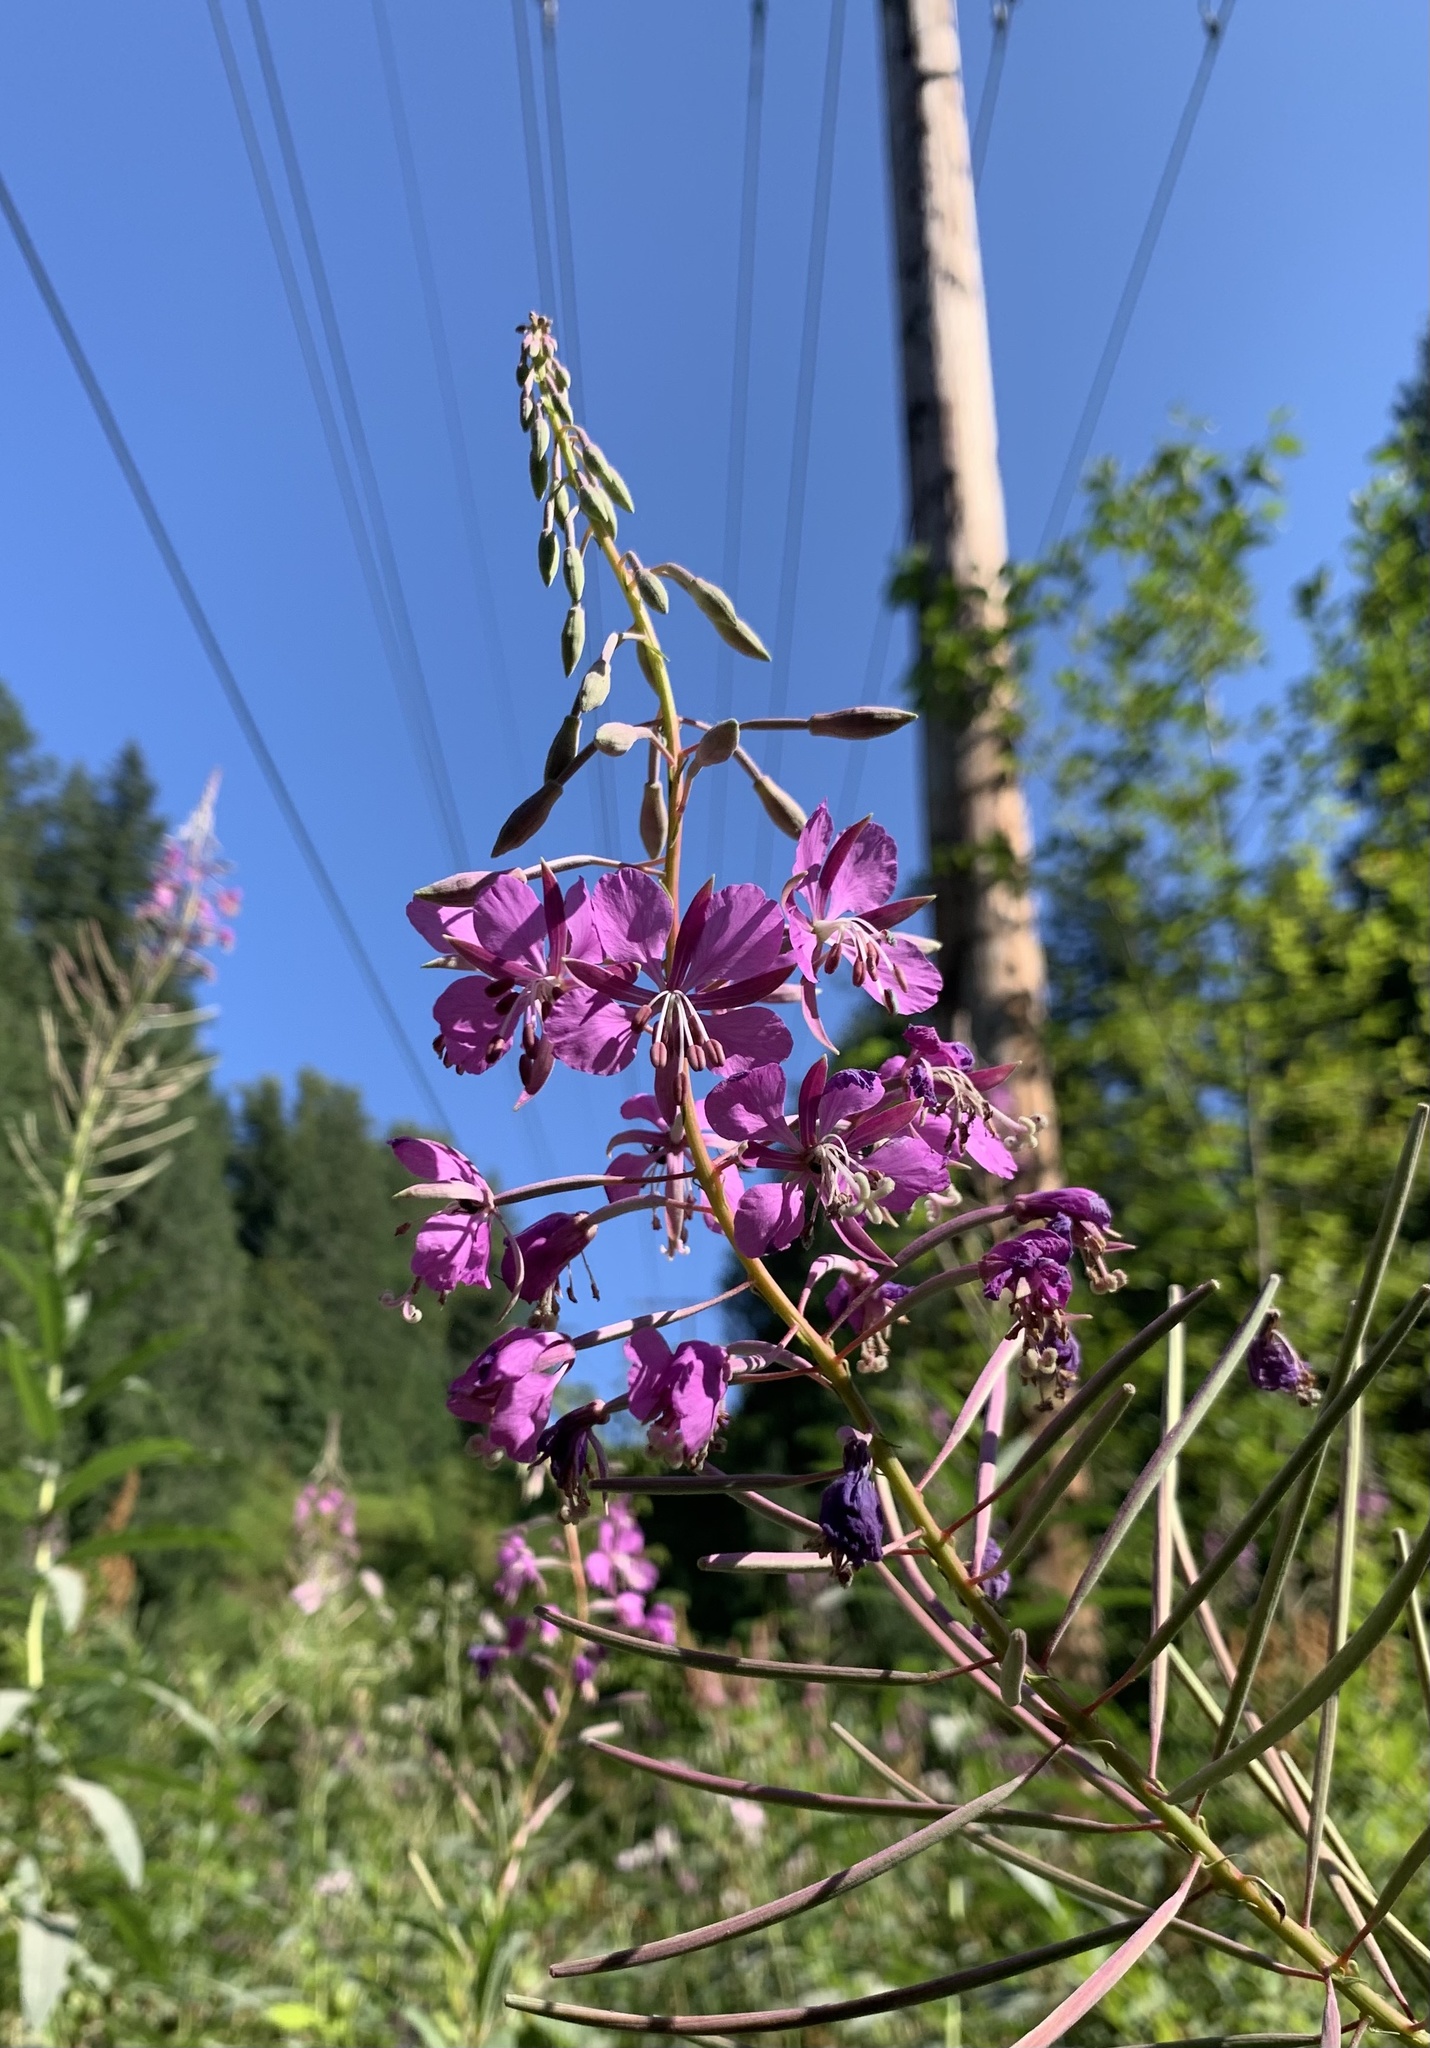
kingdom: Plantae
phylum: Tracheophyta
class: Magnoliopsida
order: Myrtales
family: Onagraceae
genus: Chamaenerion
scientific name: Chamaenerion angustifolium
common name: Fireweed
